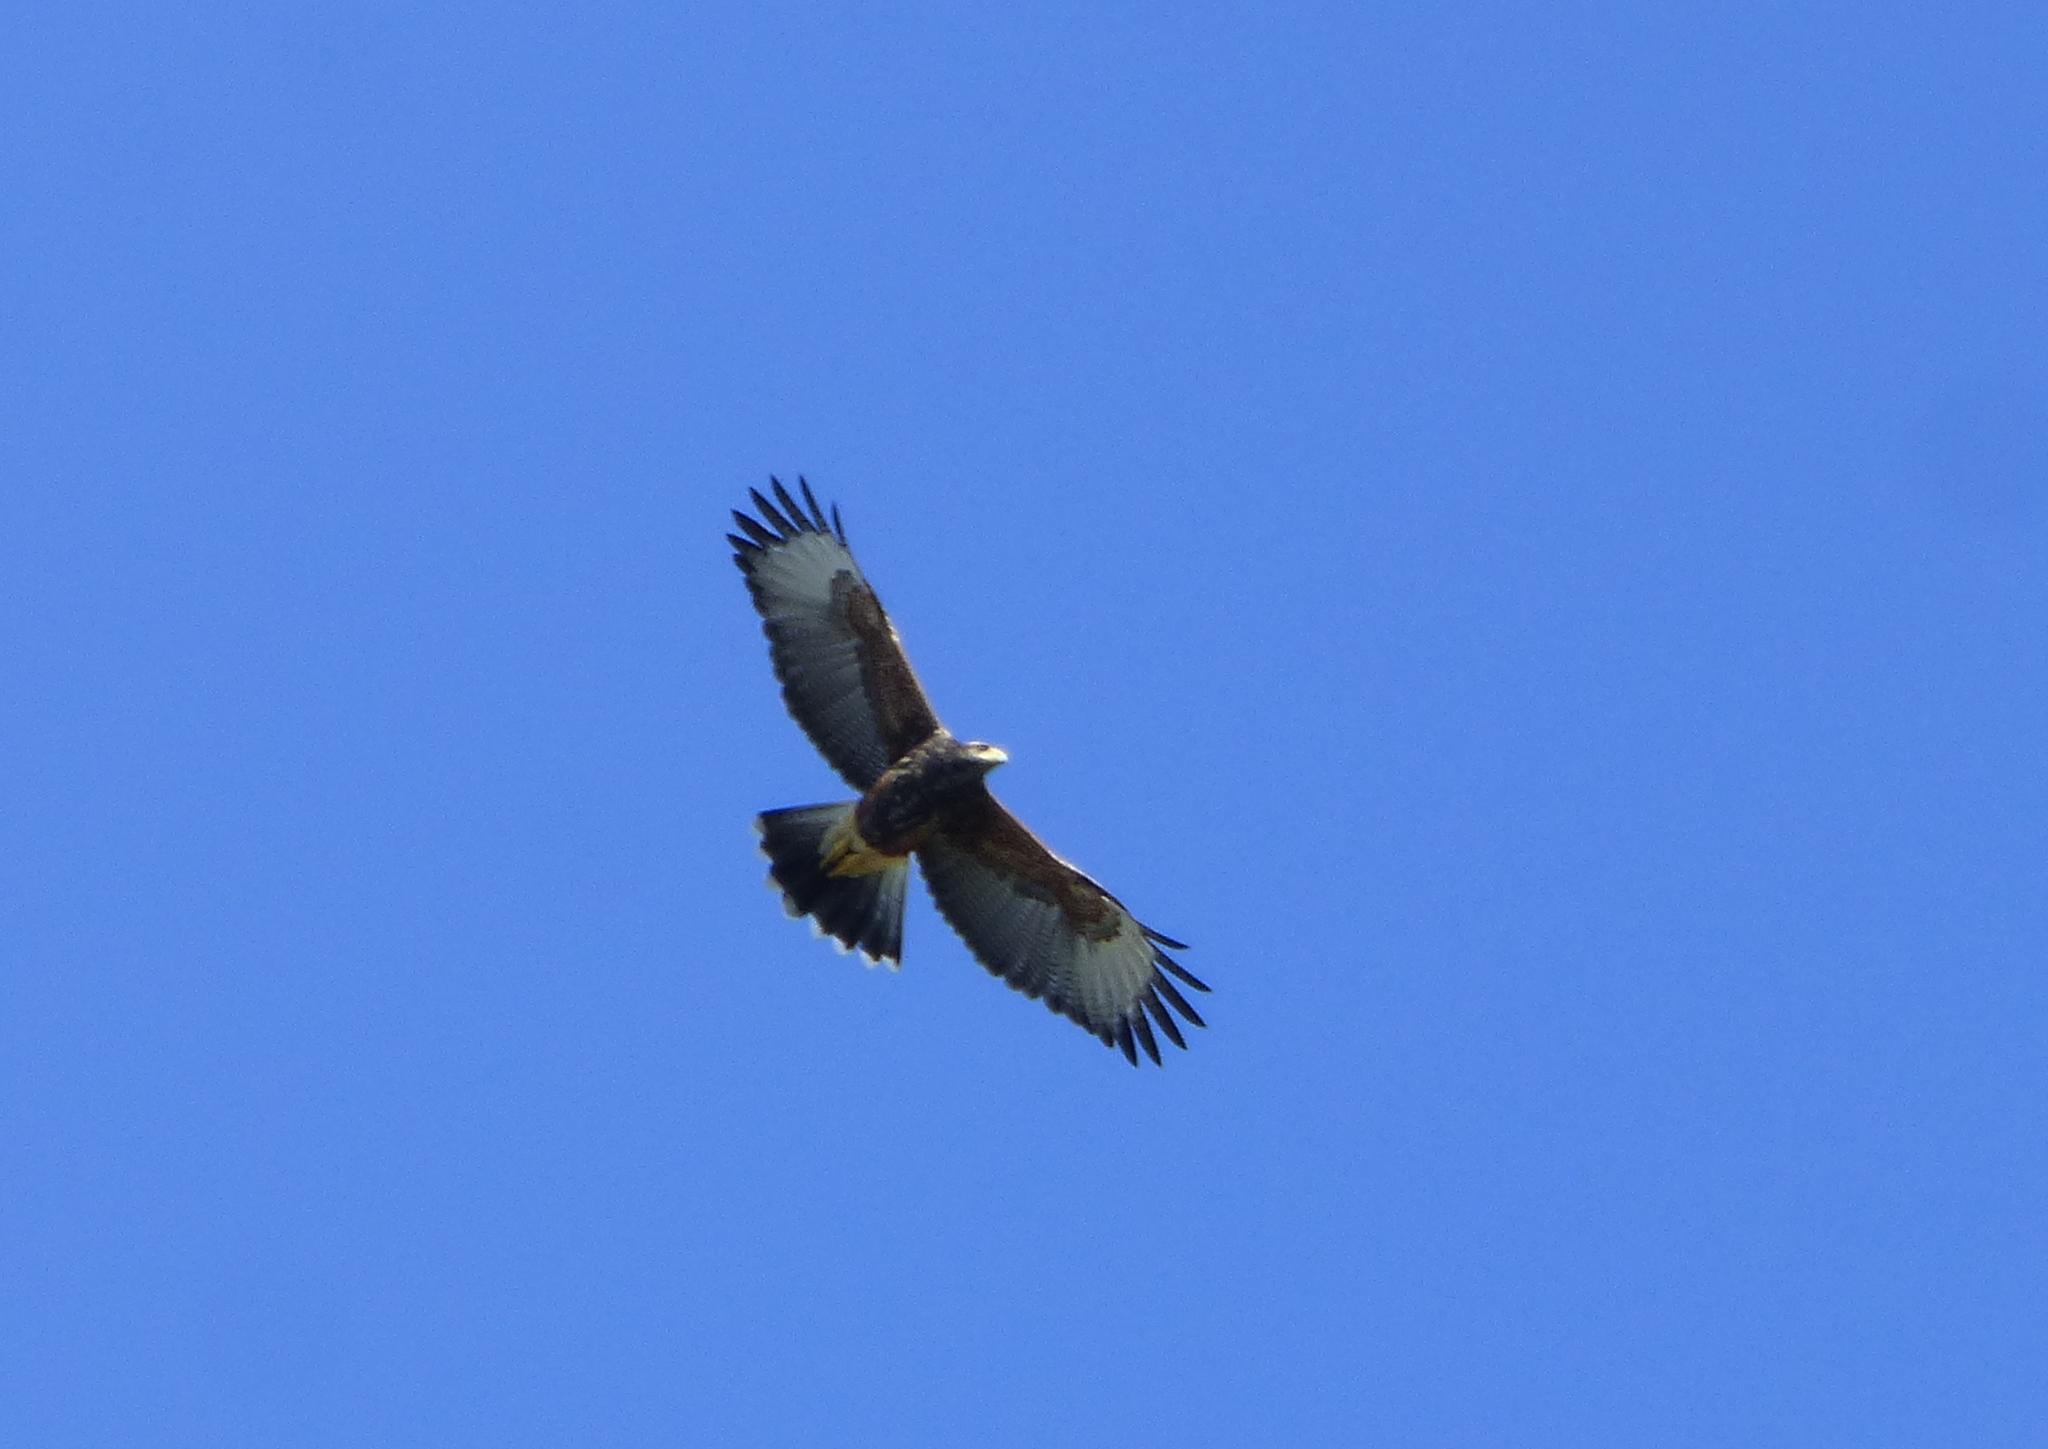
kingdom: Animalia
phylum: Chordata
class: Aves
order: Accipitriformes
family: Accipitridae
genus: Parabuteo
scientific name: Parabuteo unicinctus
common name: Harris's hawk
